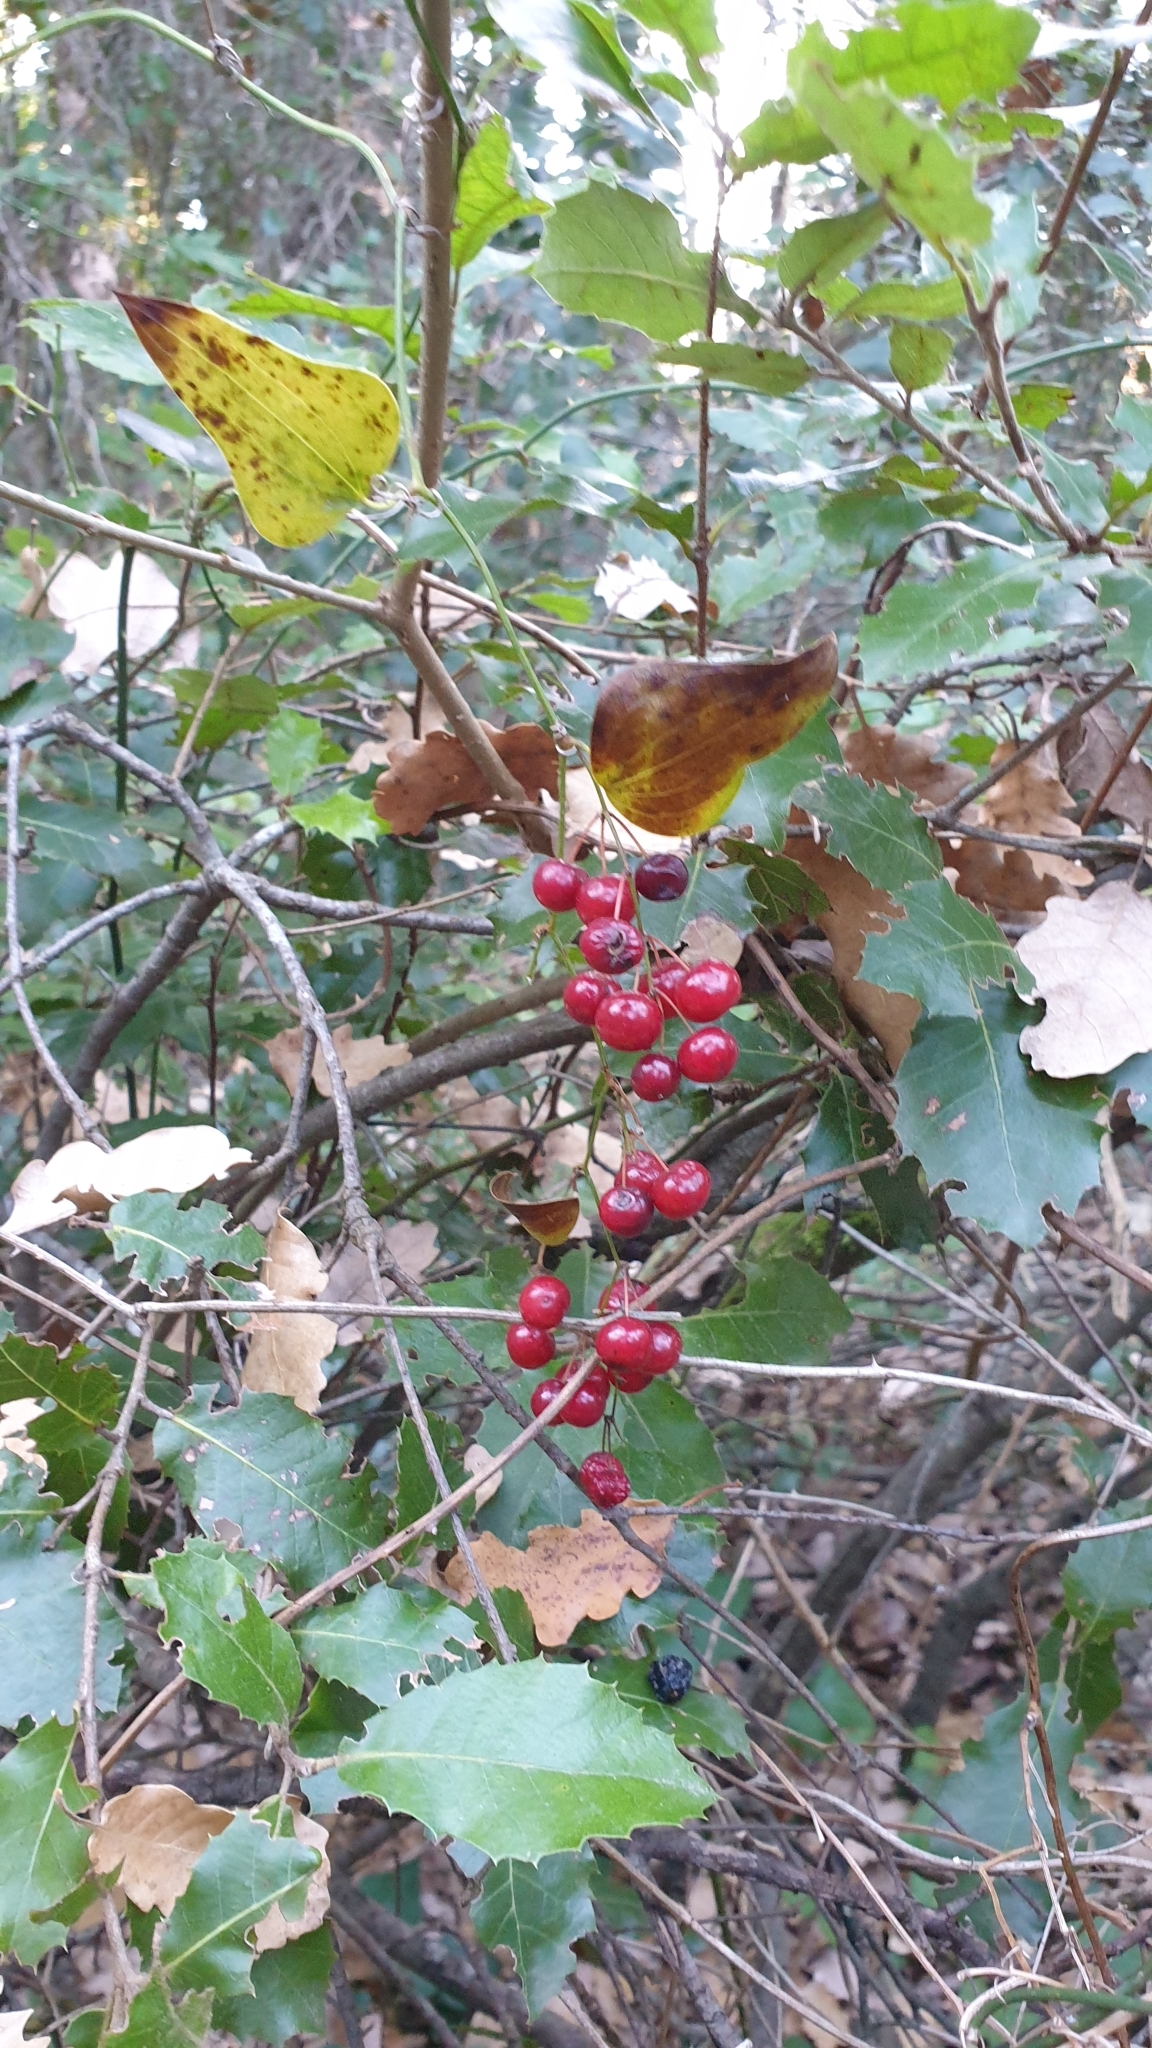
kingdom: Plantae
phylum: Tracheophyta
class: Liliopsida
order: Liliales
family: Smilacaceae
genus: Smilax
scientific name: Smilax aspera
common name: Common smilax
